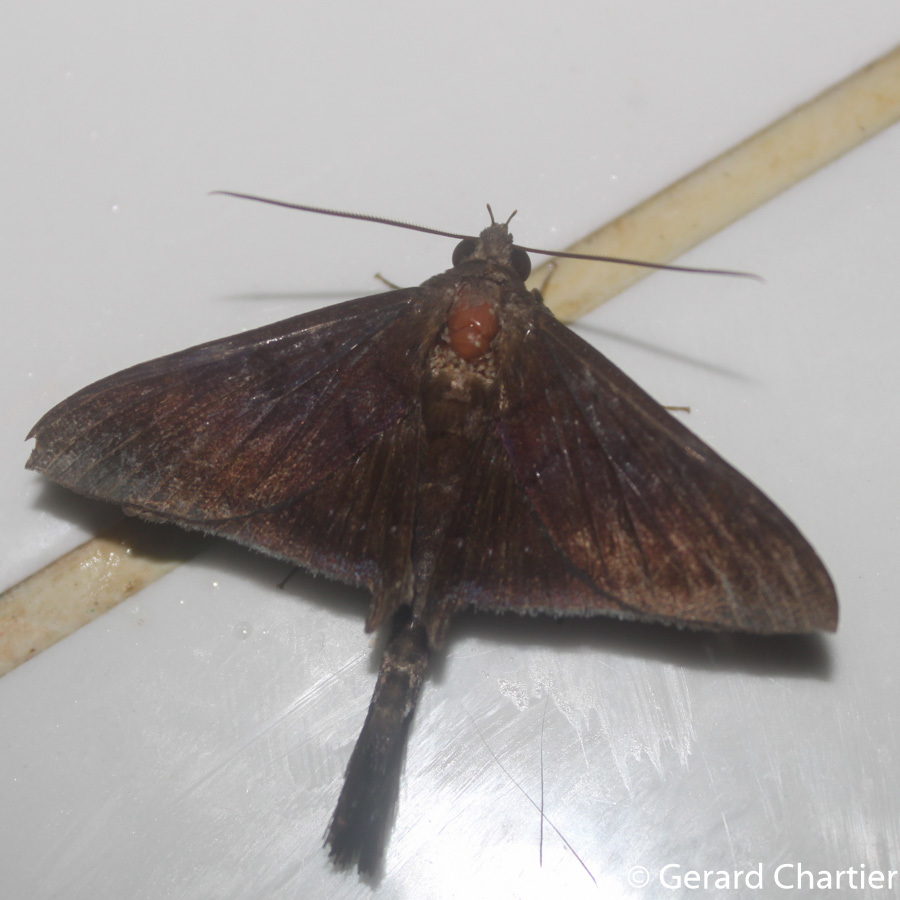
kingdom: Animalia
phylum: Arthropoda
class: Insecta
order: Lepidoptera
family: Erebidae
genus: Platyja
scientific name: Platyja umbrina
